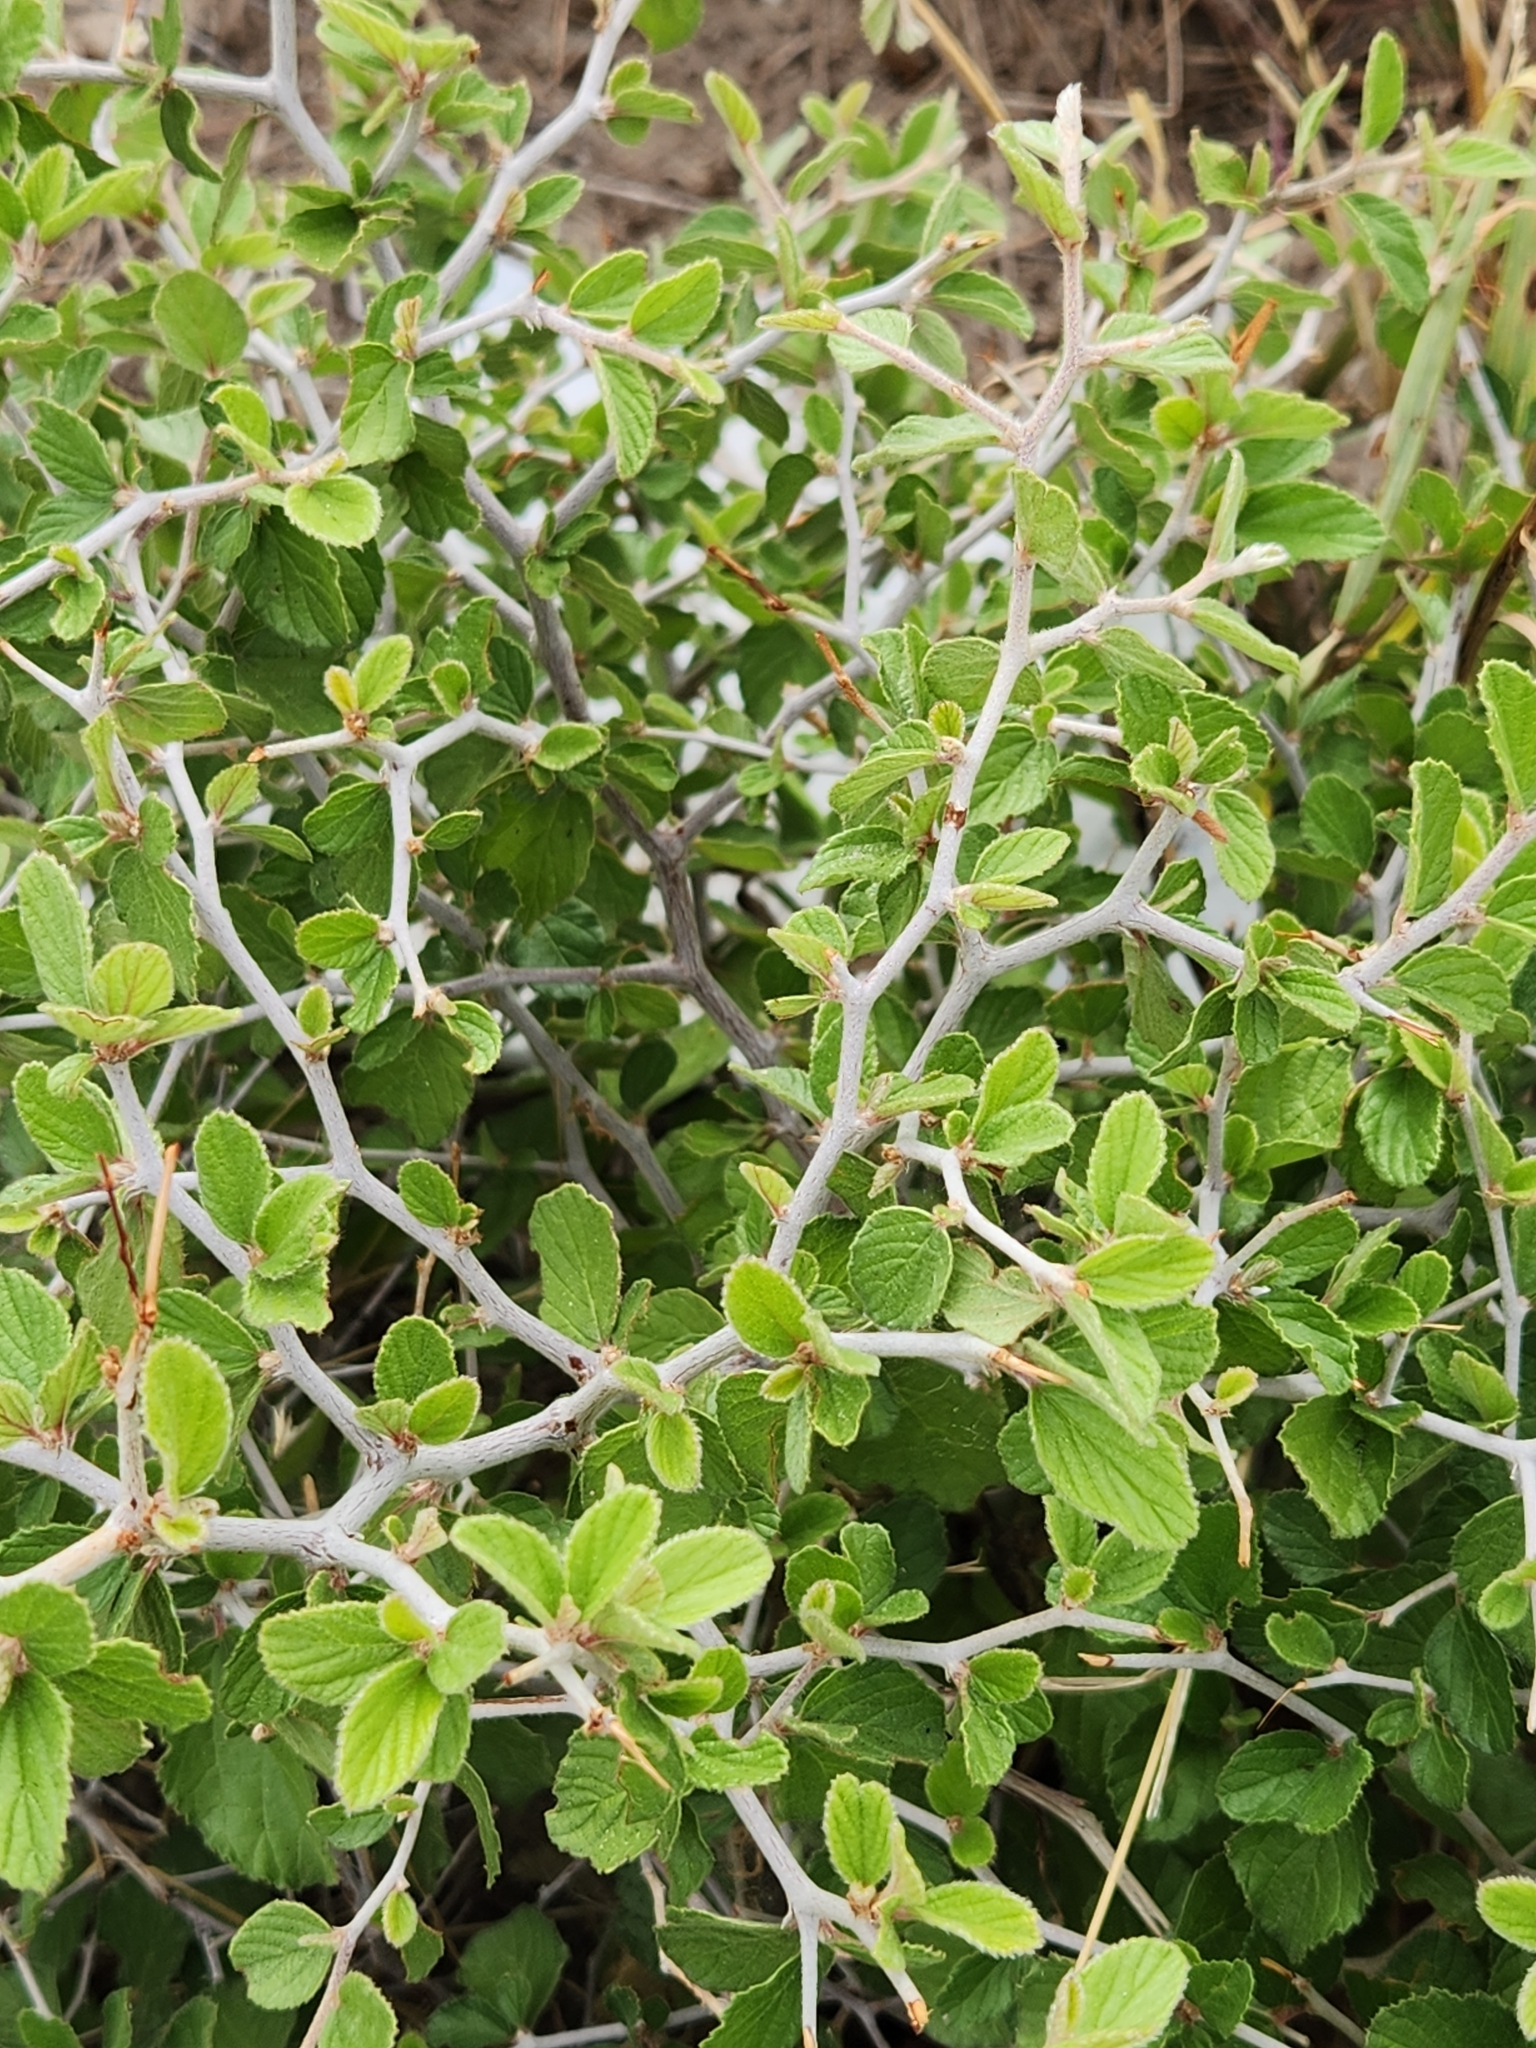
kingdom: Plantae
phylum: Tracheophyta
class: Magnoliopsida
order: Rosales
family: Rhamnaceae
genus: Colubrina
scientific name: Colubrina texensis
